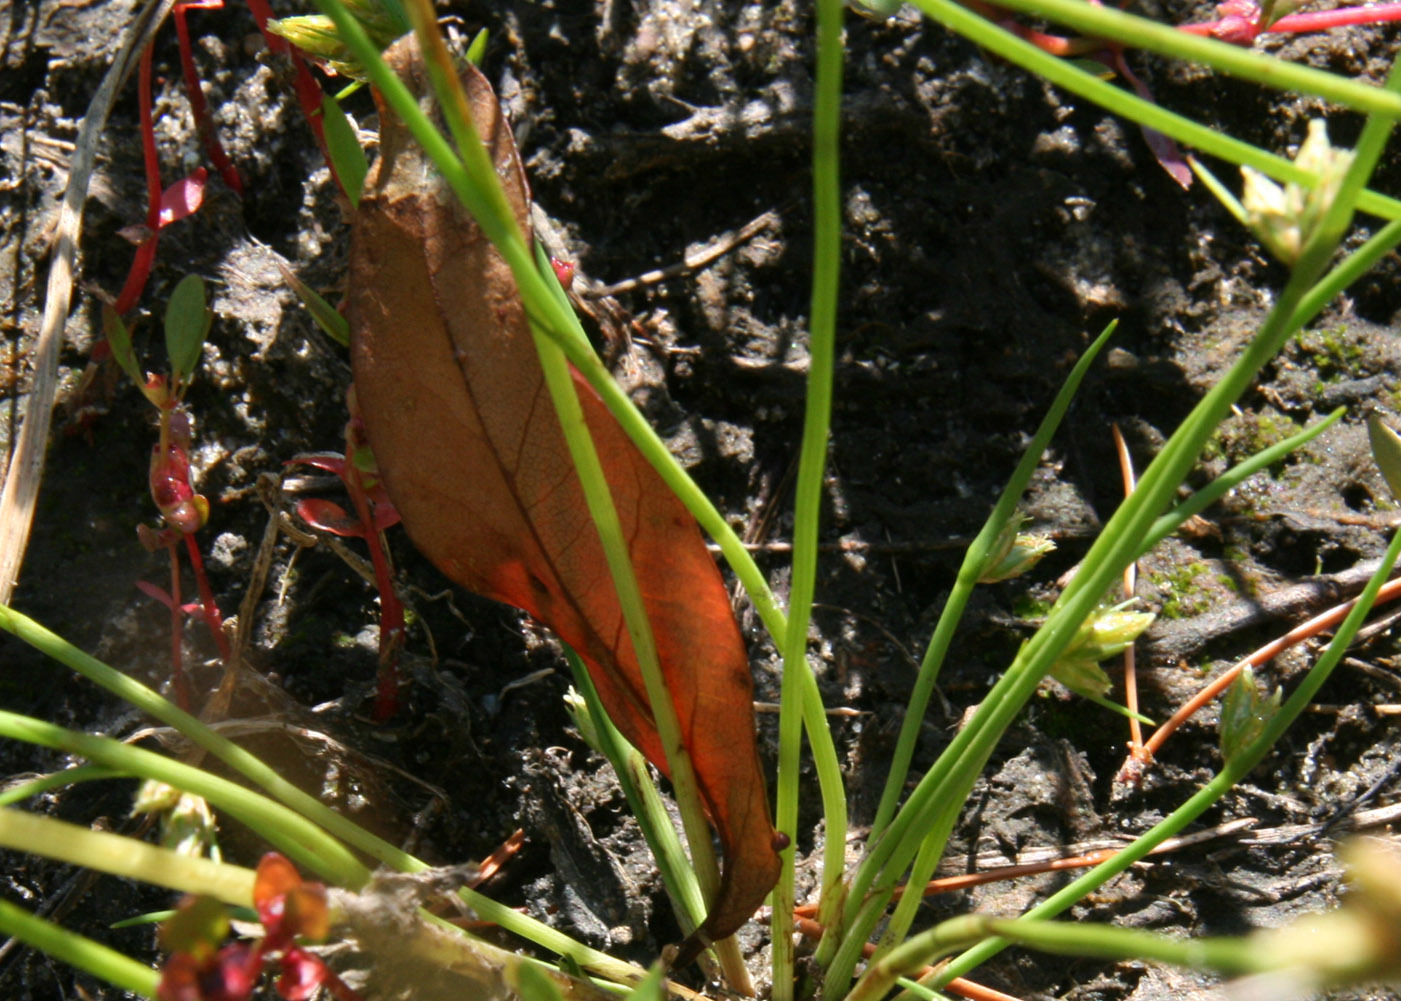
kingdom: Plantae
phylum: Tracheophyta
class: Liliopsida
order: Poales
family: Cyperaceae
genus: Schoenoplectiella
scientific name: Schoenoplectiella hallii
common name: Hall's bullrush
